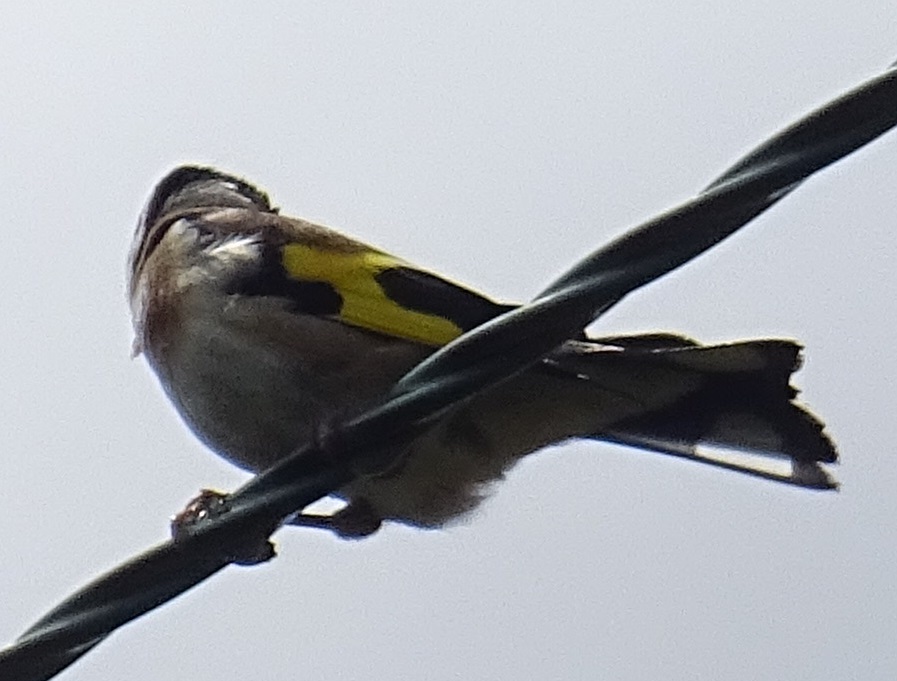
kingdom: Animalia
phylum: Chordata
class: Aves
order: Passeriformes
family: Fringillidae
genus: Carduelis
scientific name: Carduelis carduelis
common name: European goldfinch
